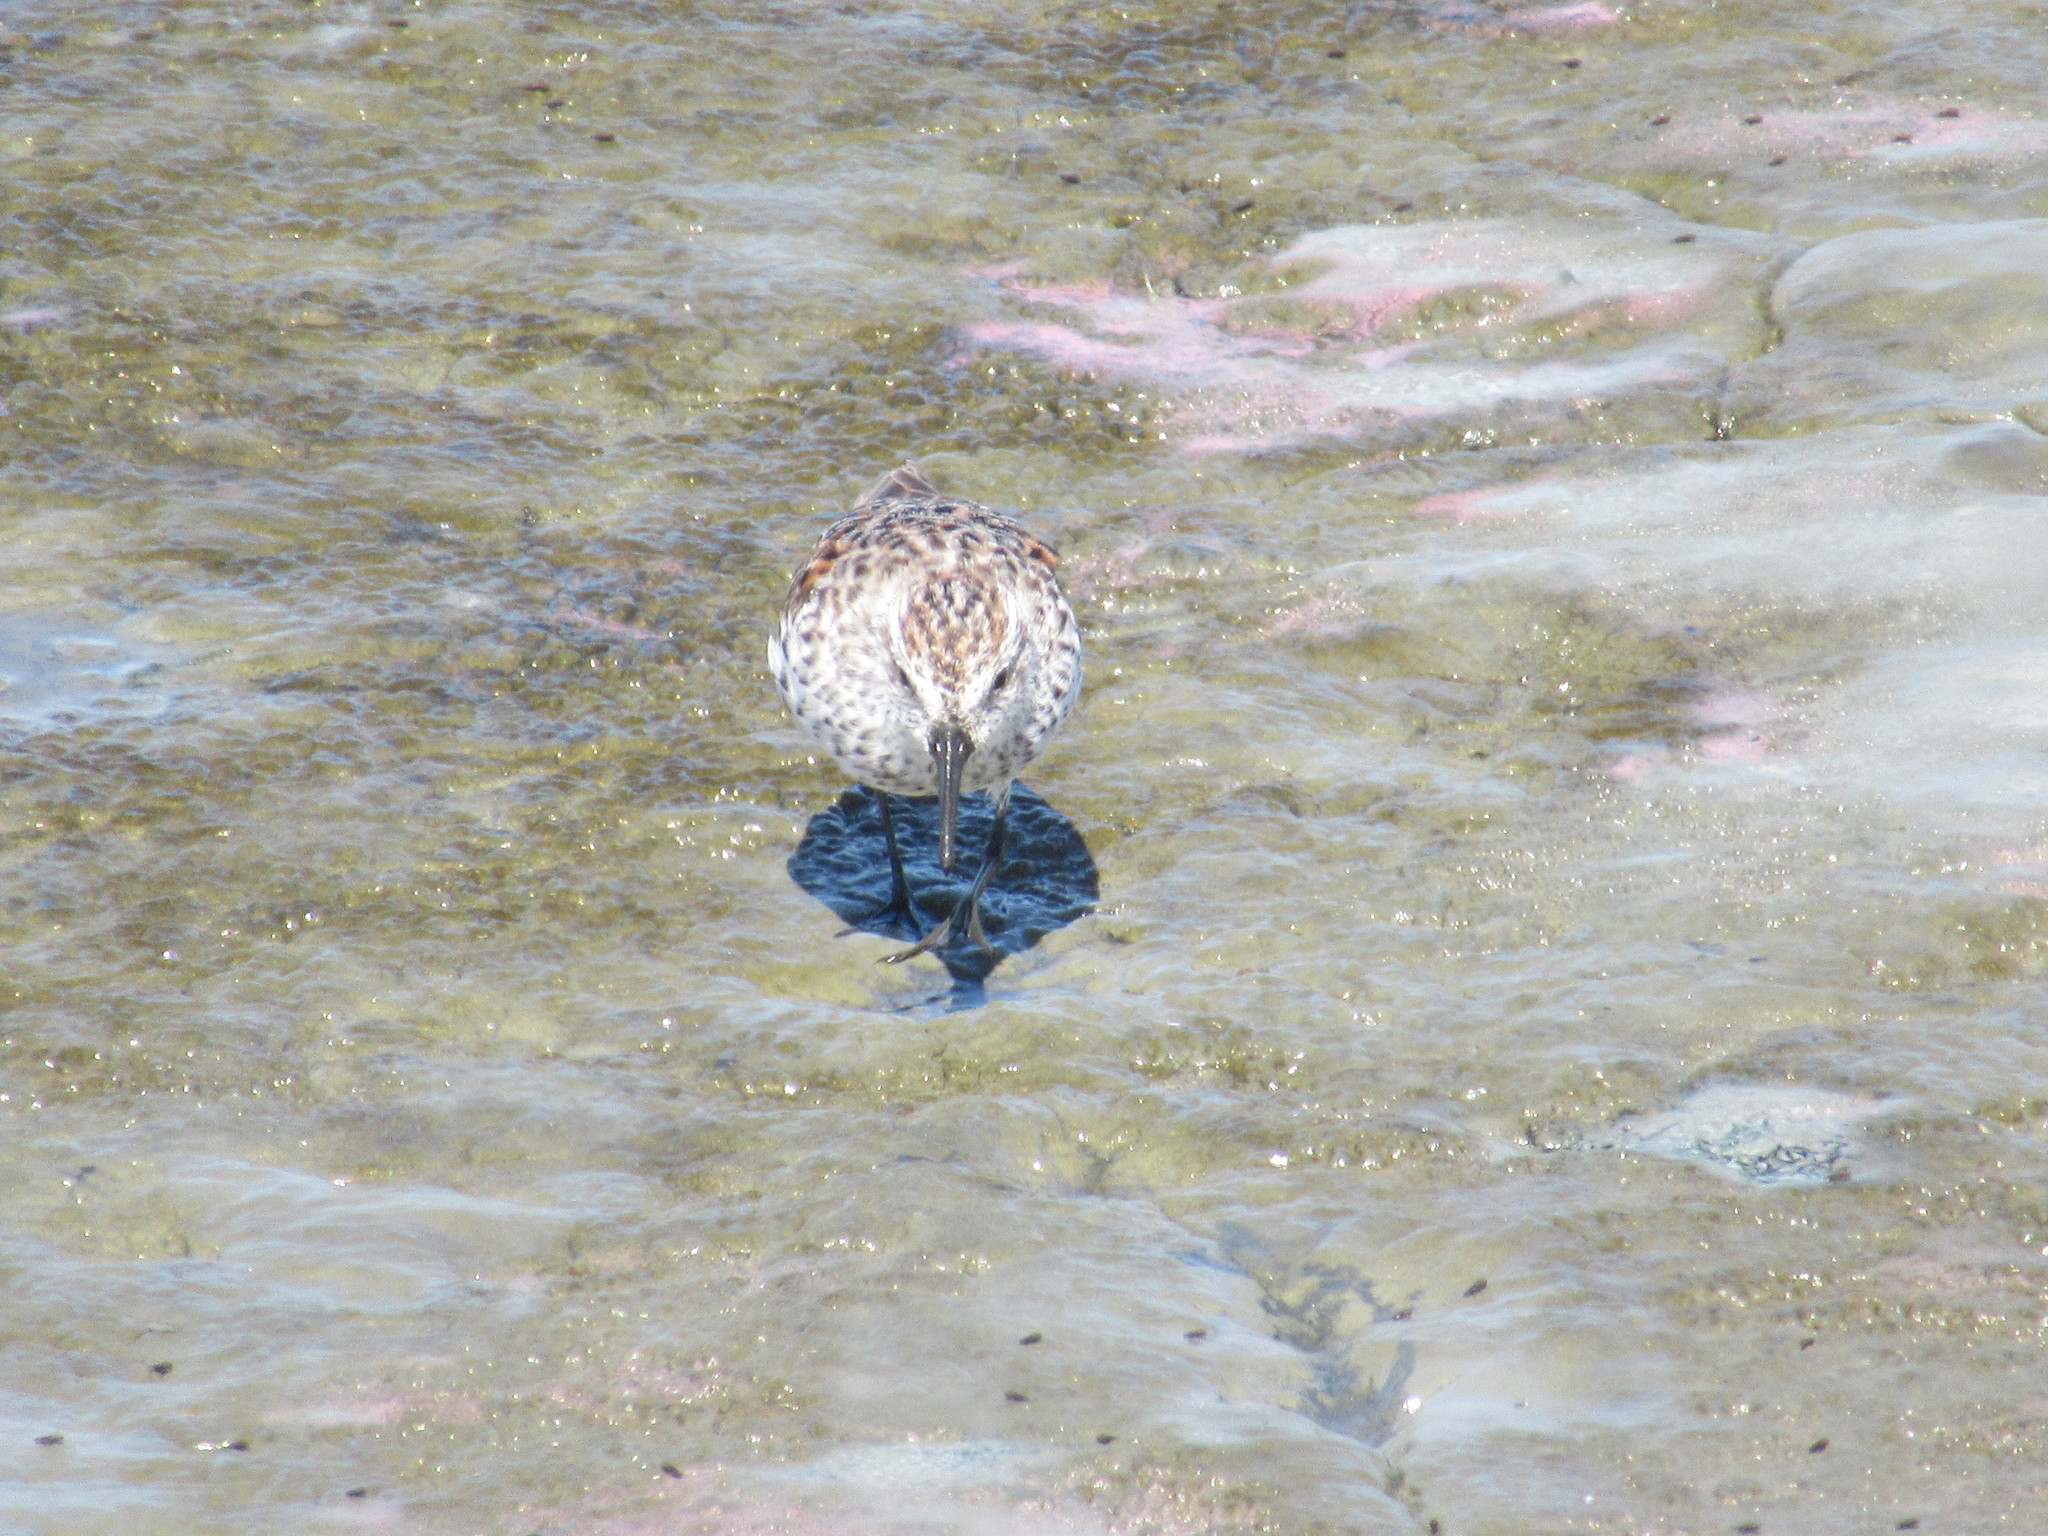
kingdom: Animalia
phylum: Chordata
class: Aves
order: Charadriiformes
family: Scolopacidae
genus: Calidris
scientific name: Calidris mauri
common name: Western sandpiper
